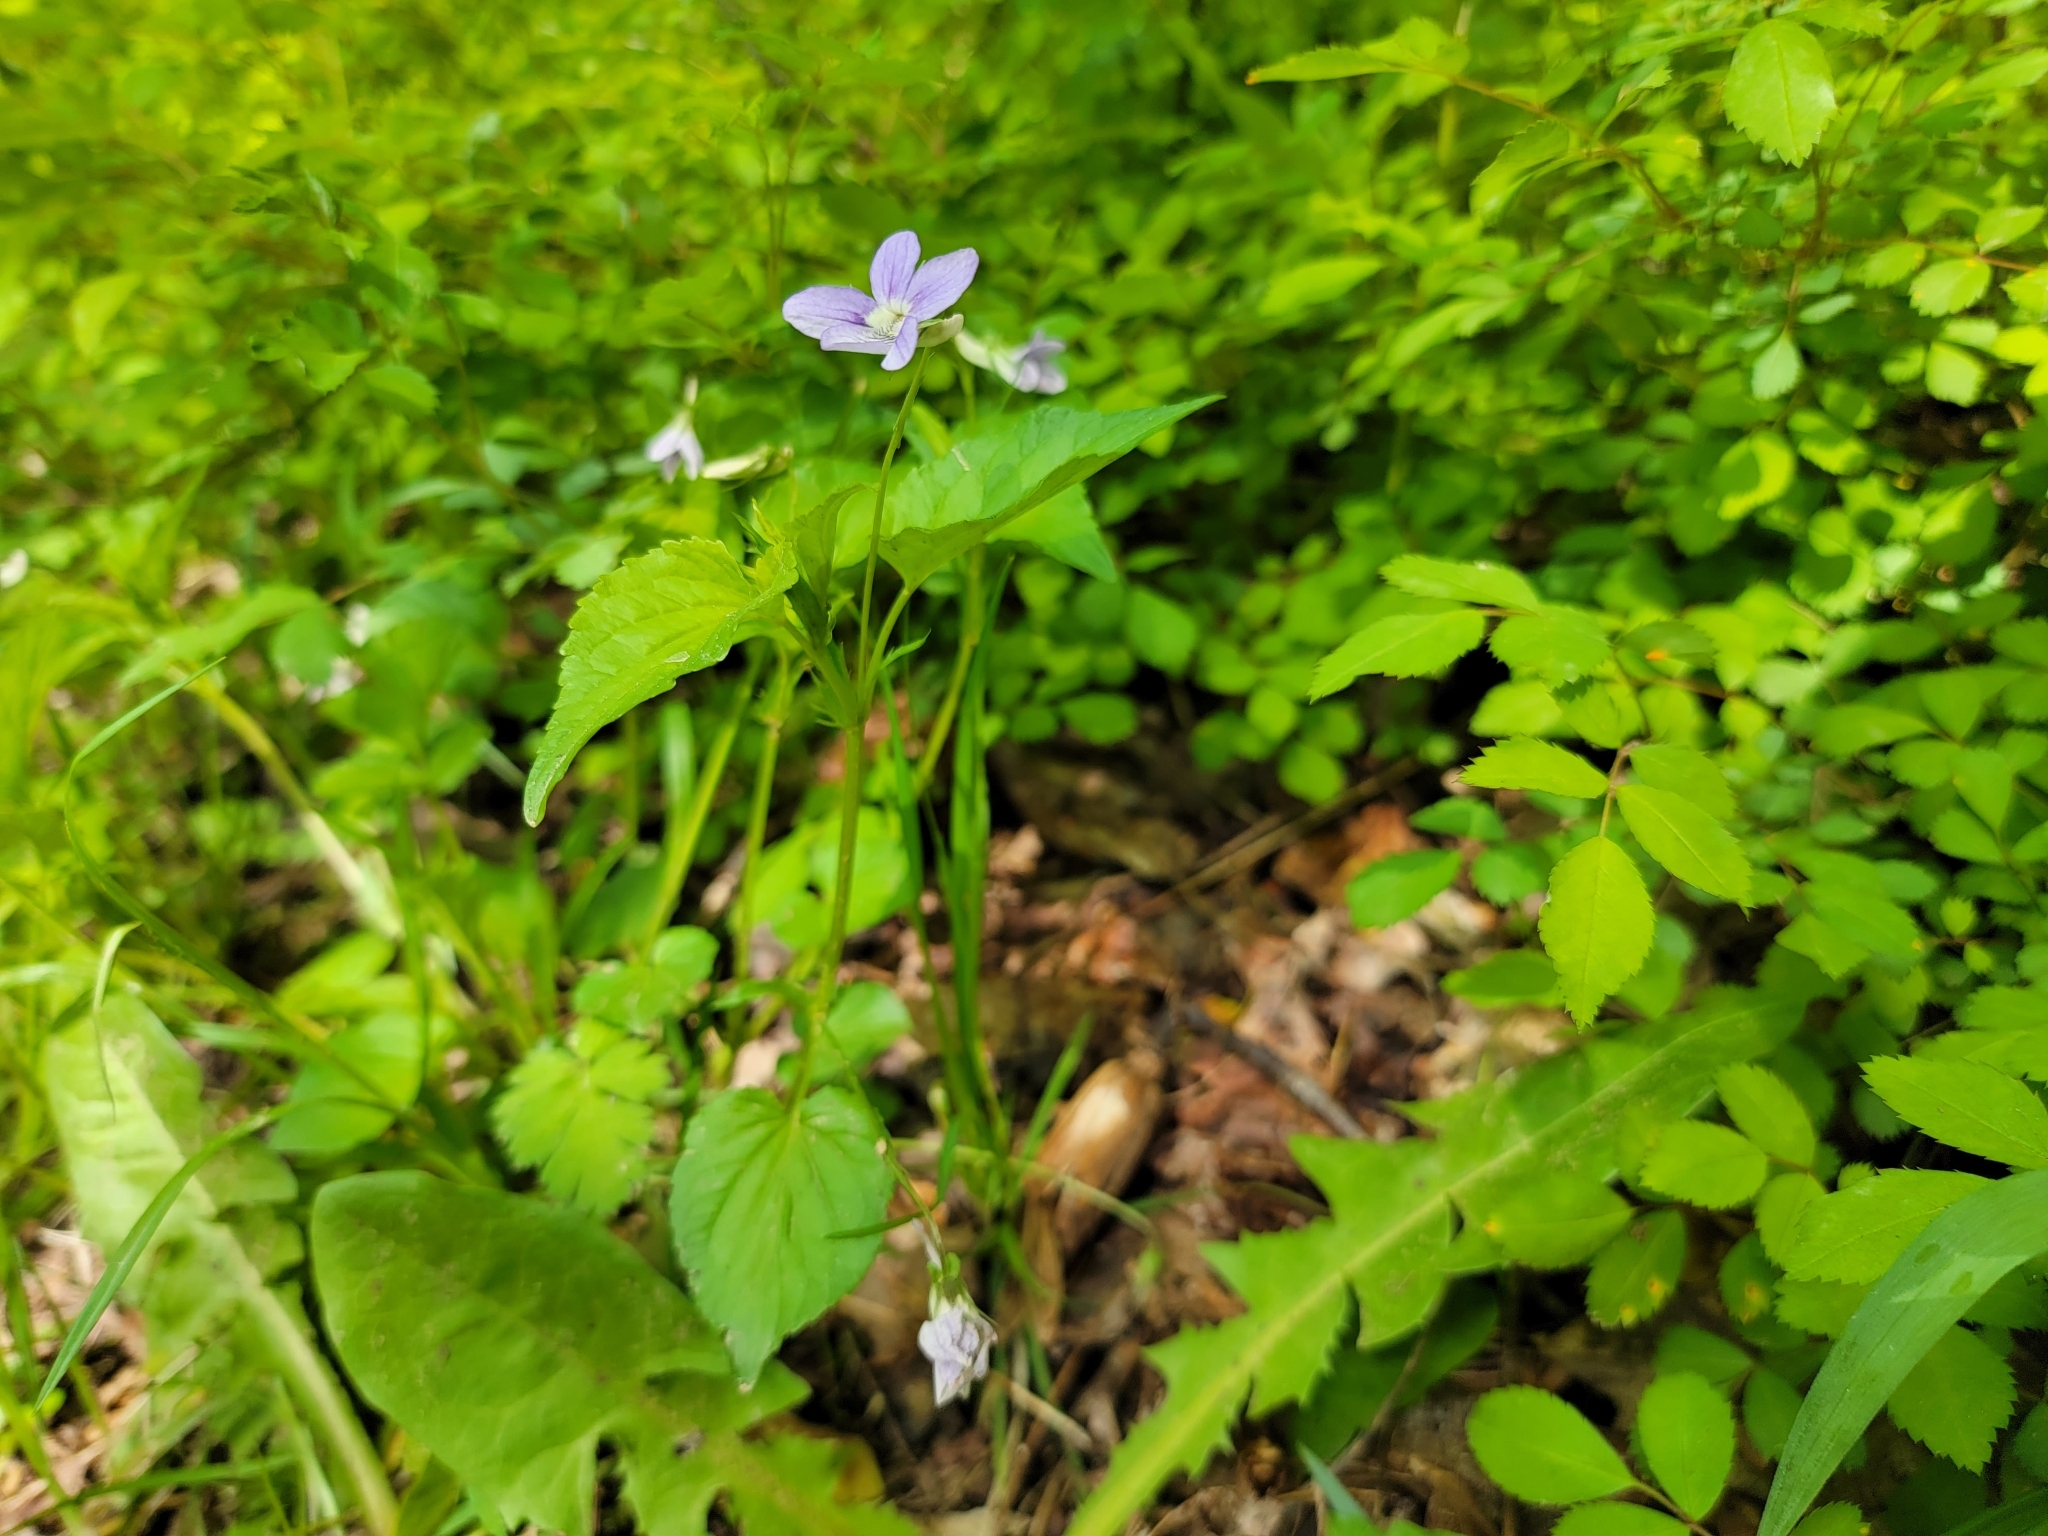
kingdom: Plantae
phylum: Tracheophyta
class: Magnoliopsida
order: Malpighiales
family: Violaceae
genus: Viola
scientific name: Viola brauniae
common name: Braun's violet
